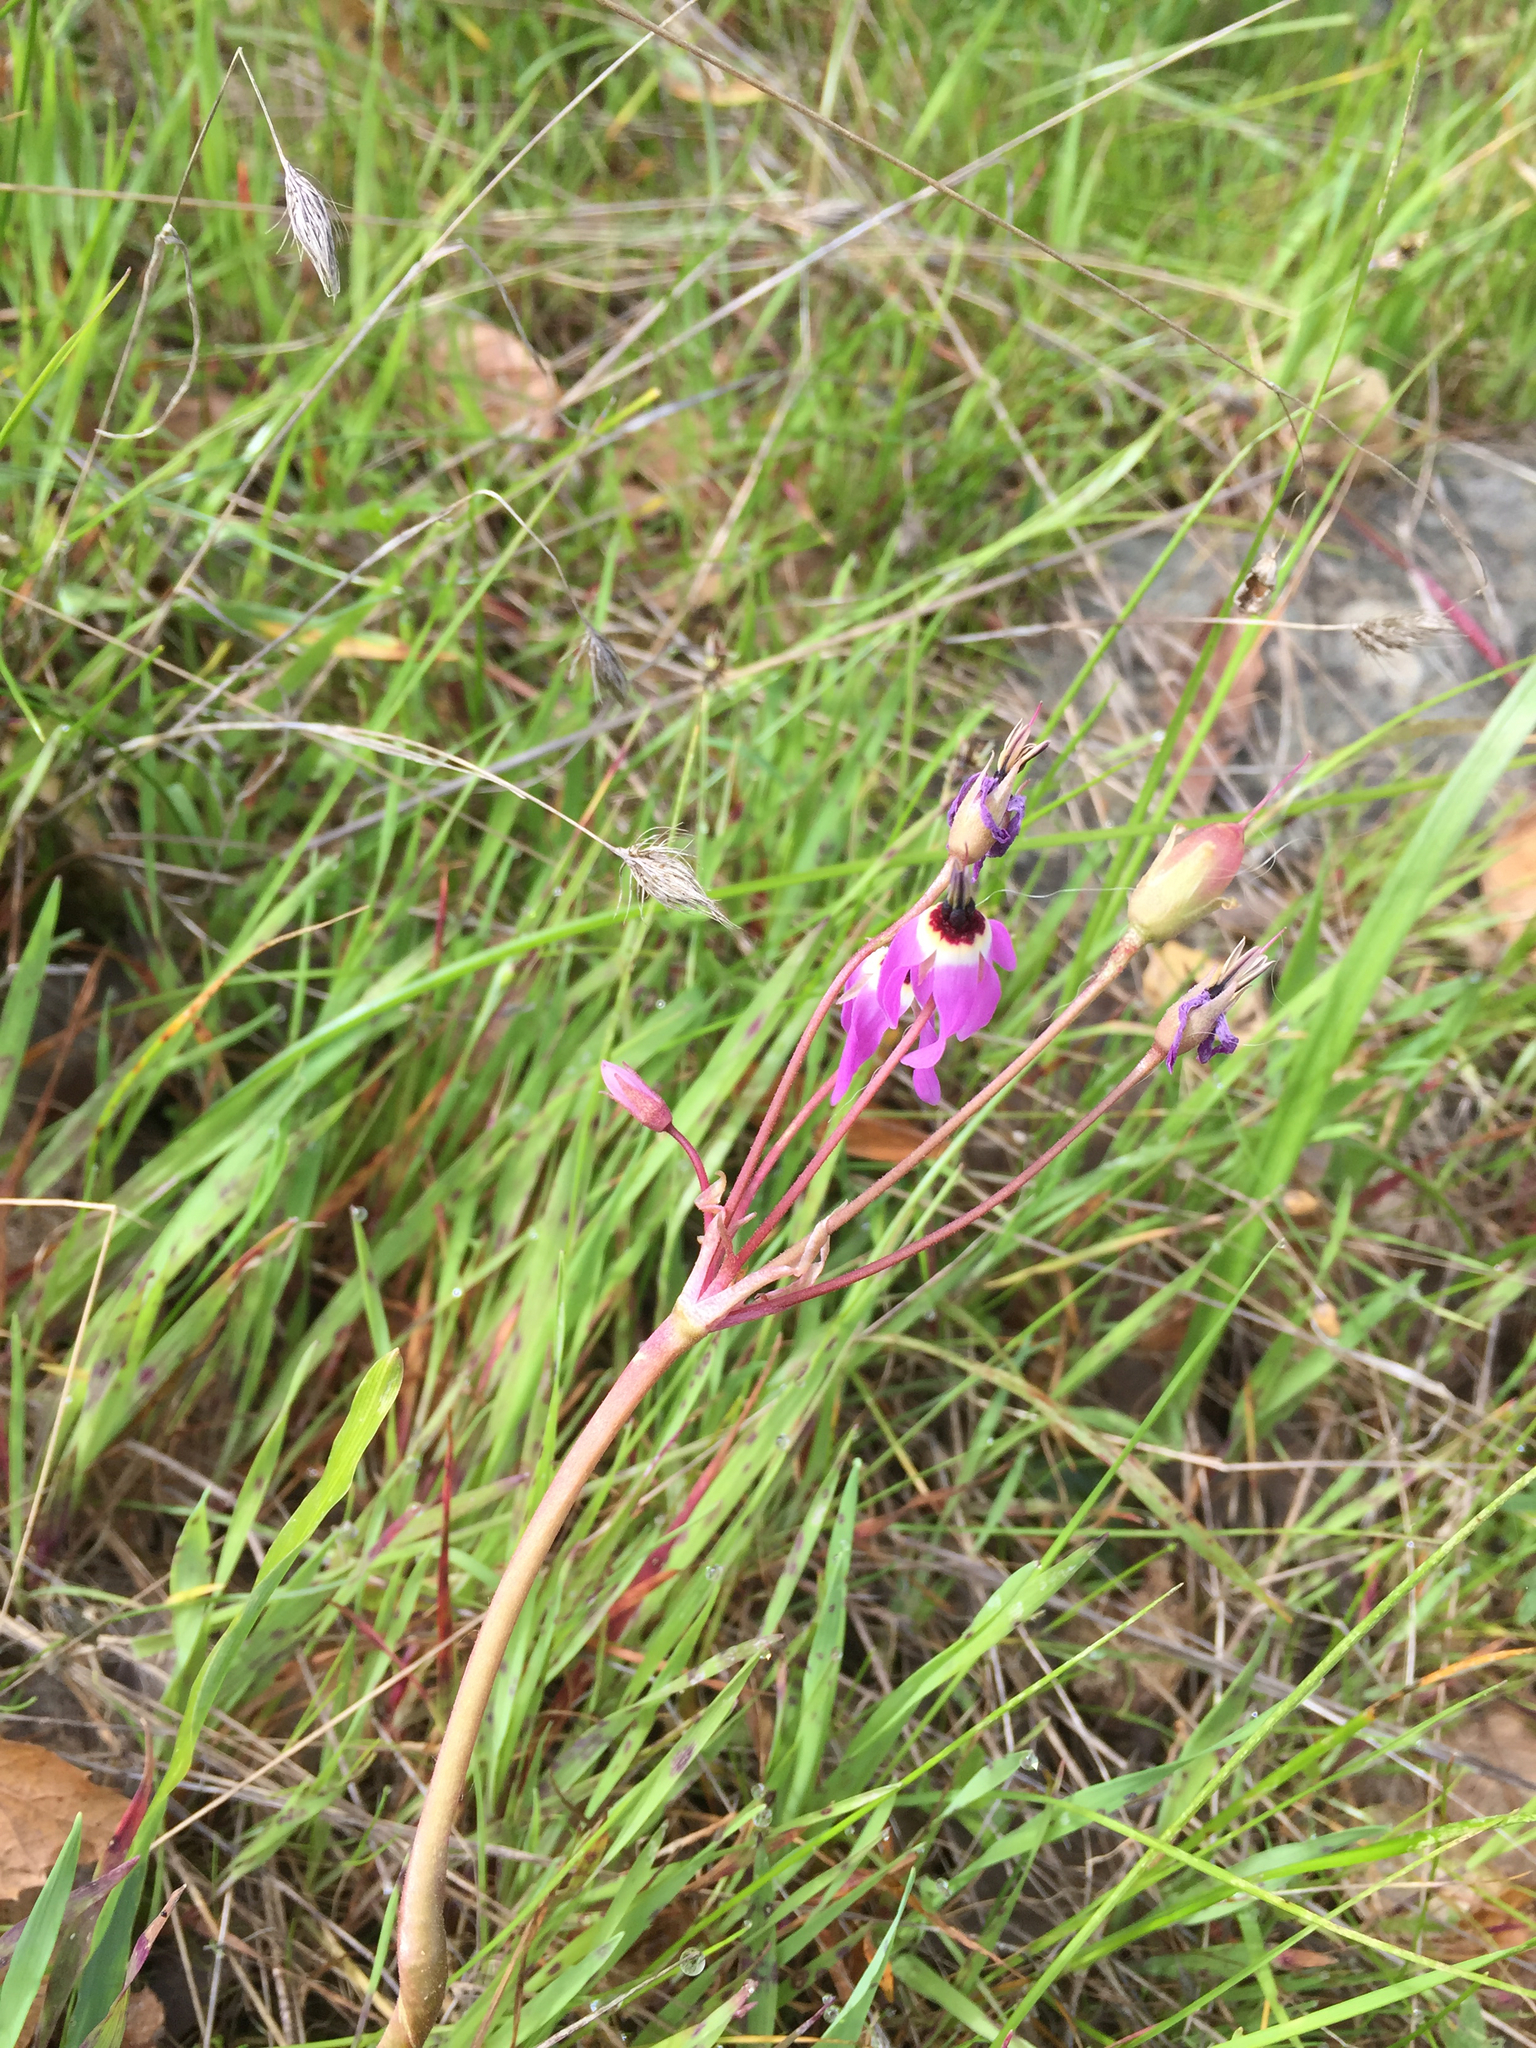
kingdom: Plantae
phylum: Tracheophyta
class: Magnoliopsida
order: Ericales
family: Primulaceae
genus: Dodecatheon
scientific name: Dodecatheon hendersonii
